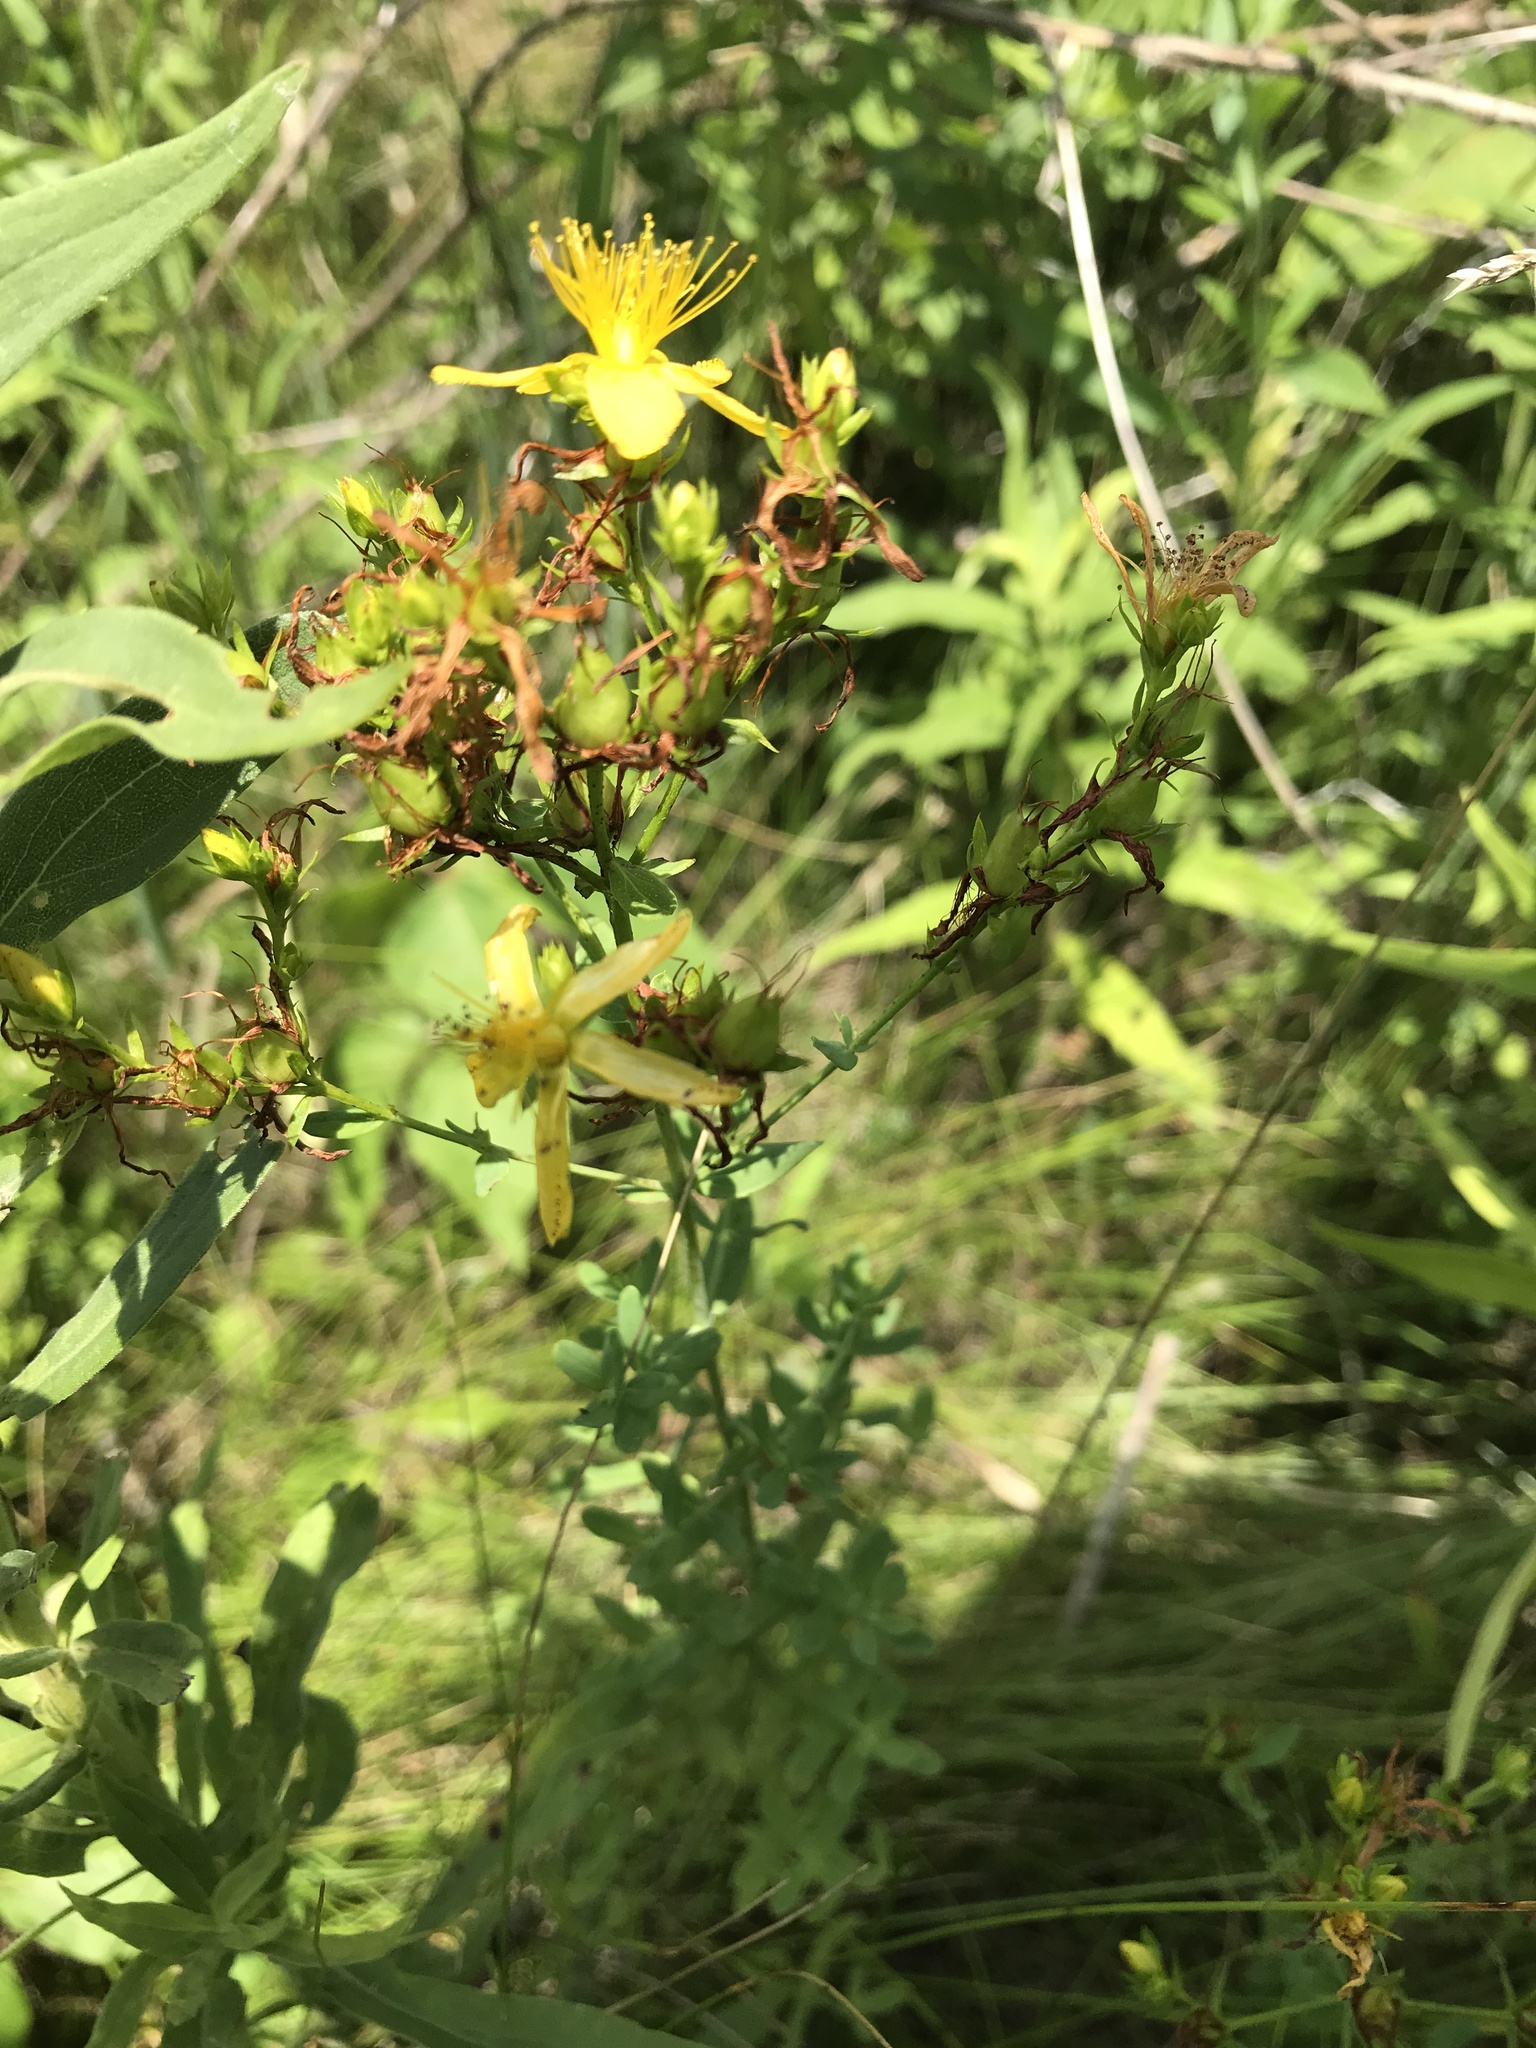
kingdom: Plantae
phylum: Tracheophyta
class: Magnoliopsida
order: Malpighiales
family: Hypericaceae
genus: Hypericum
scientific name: Hypericum perforatum
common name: Common st. johnswort
